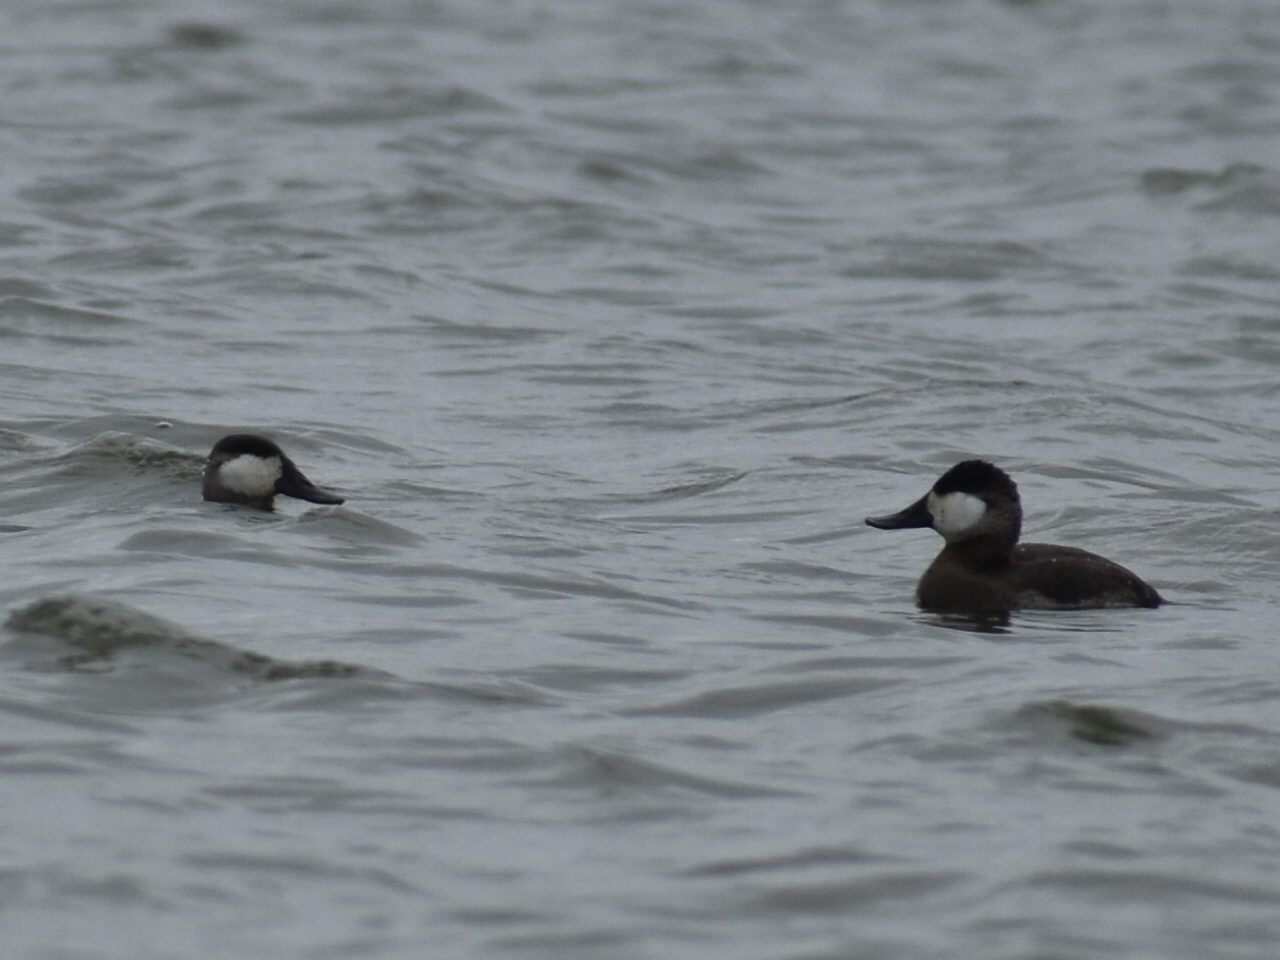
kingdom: Animalia
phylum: Chordata
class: Aves
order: Anseriformes
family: Anatidae
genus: Oxyura
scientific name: Oxyura jamaicensis
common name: Ruddy duck
